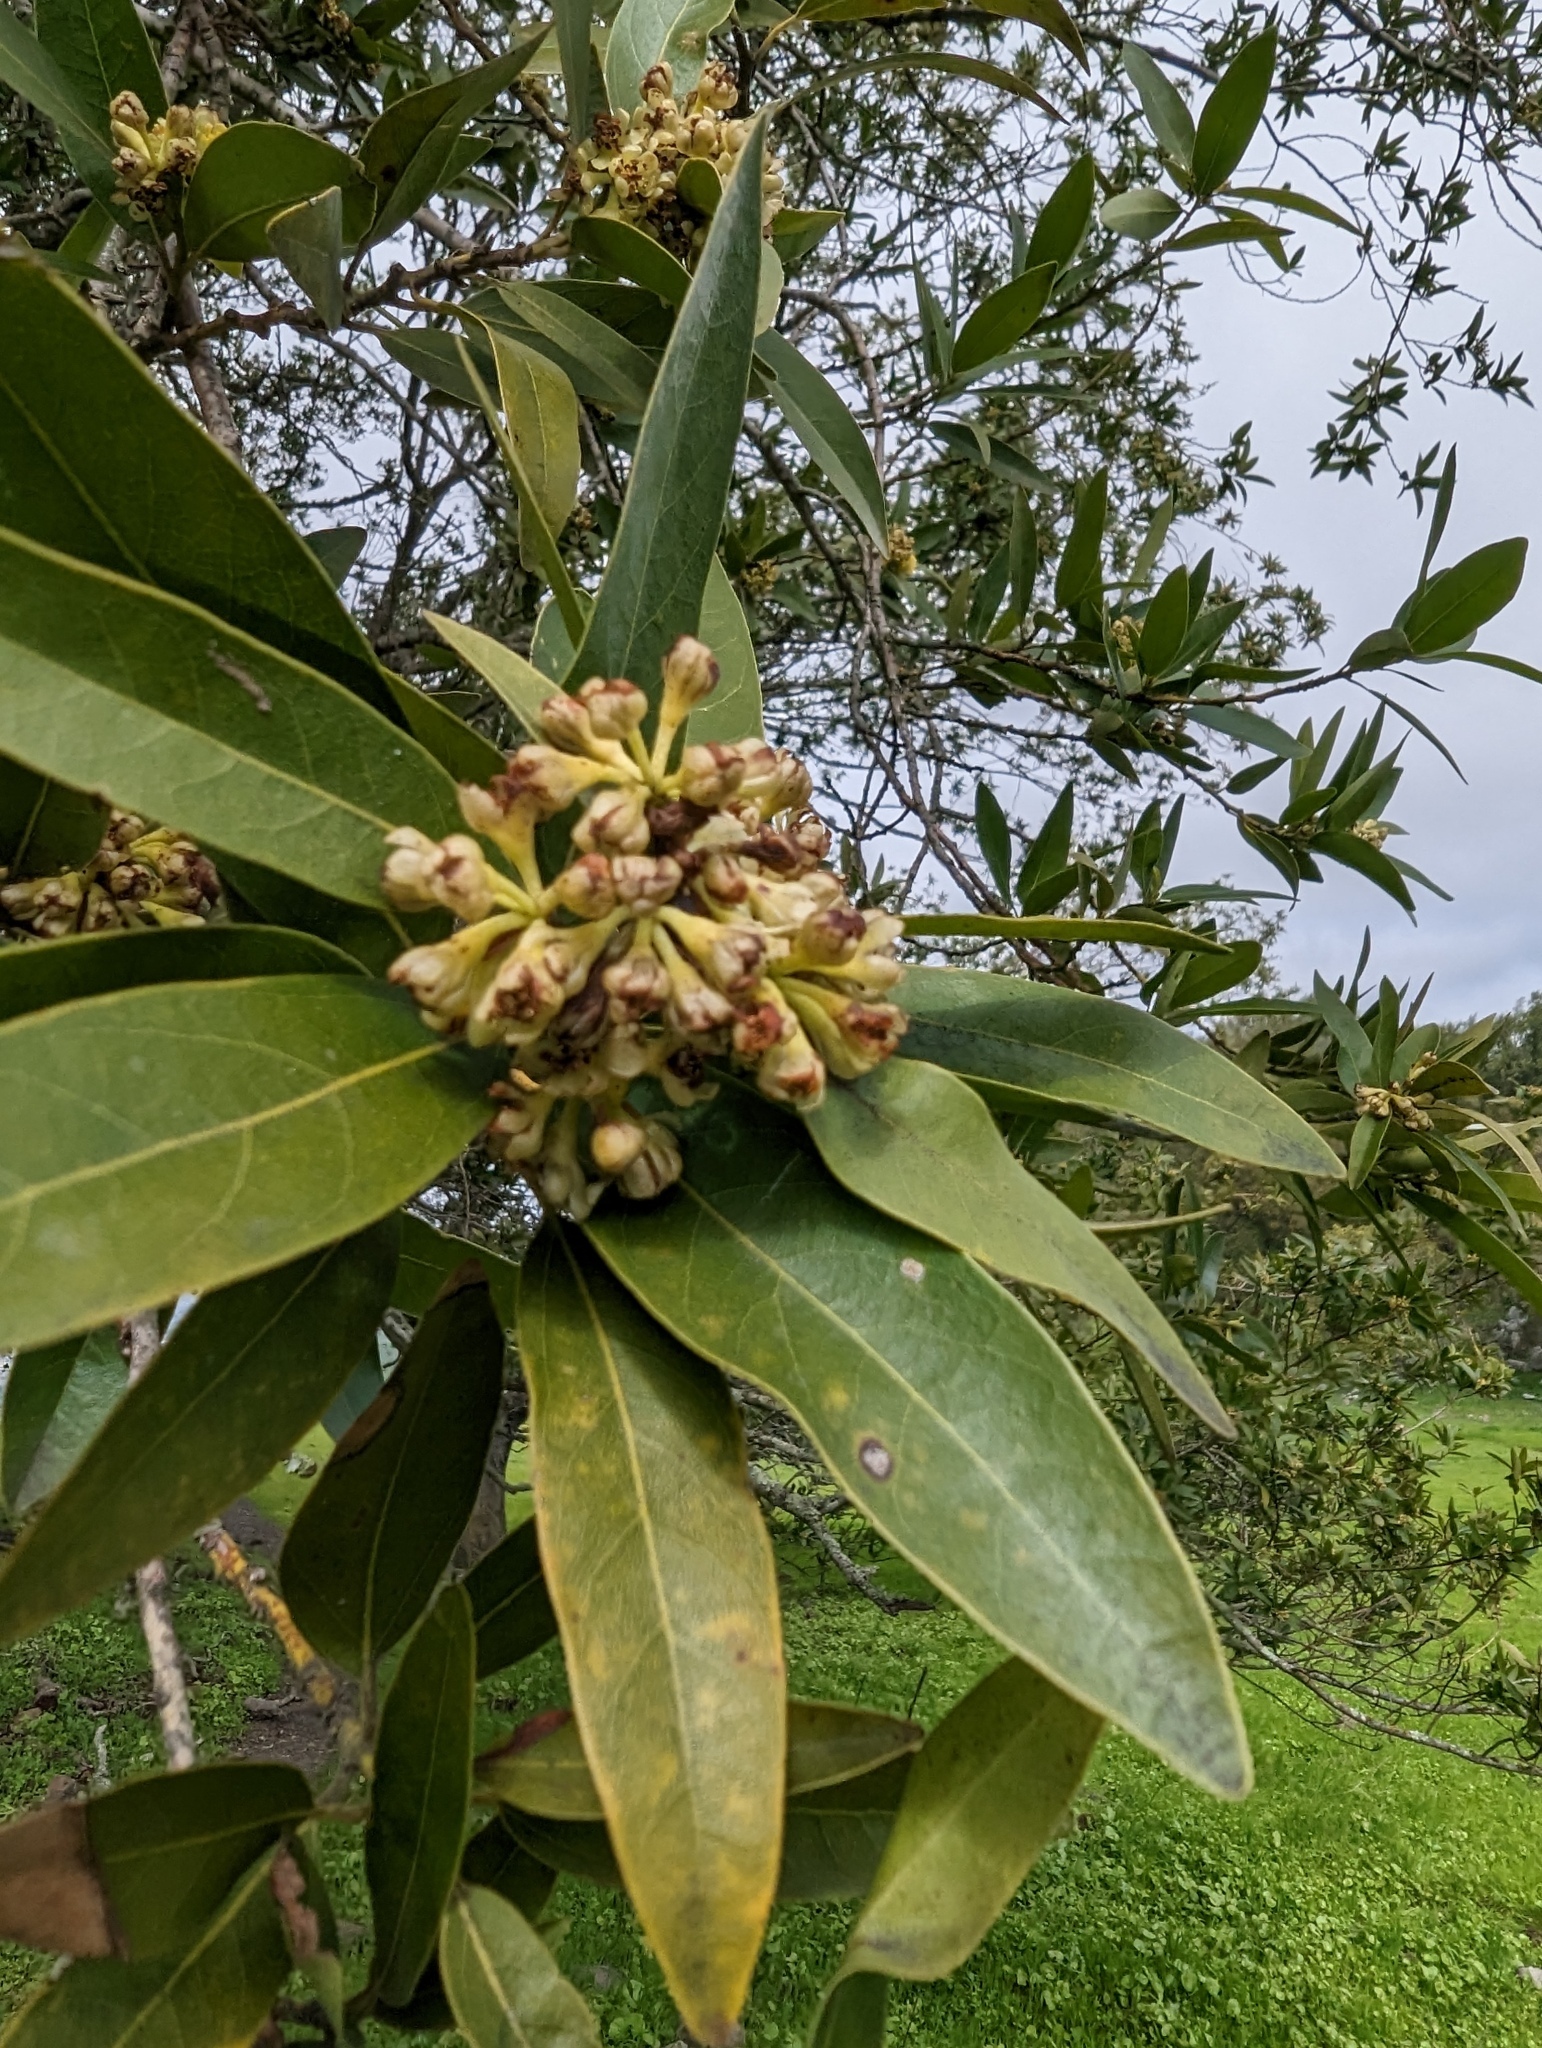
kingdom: Plantae
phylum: Tracheophyta
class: Magnoliopsida
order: Laurales
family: Lauraceae
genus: Umbellularia
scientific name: Umbellularia californica
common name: California bay
